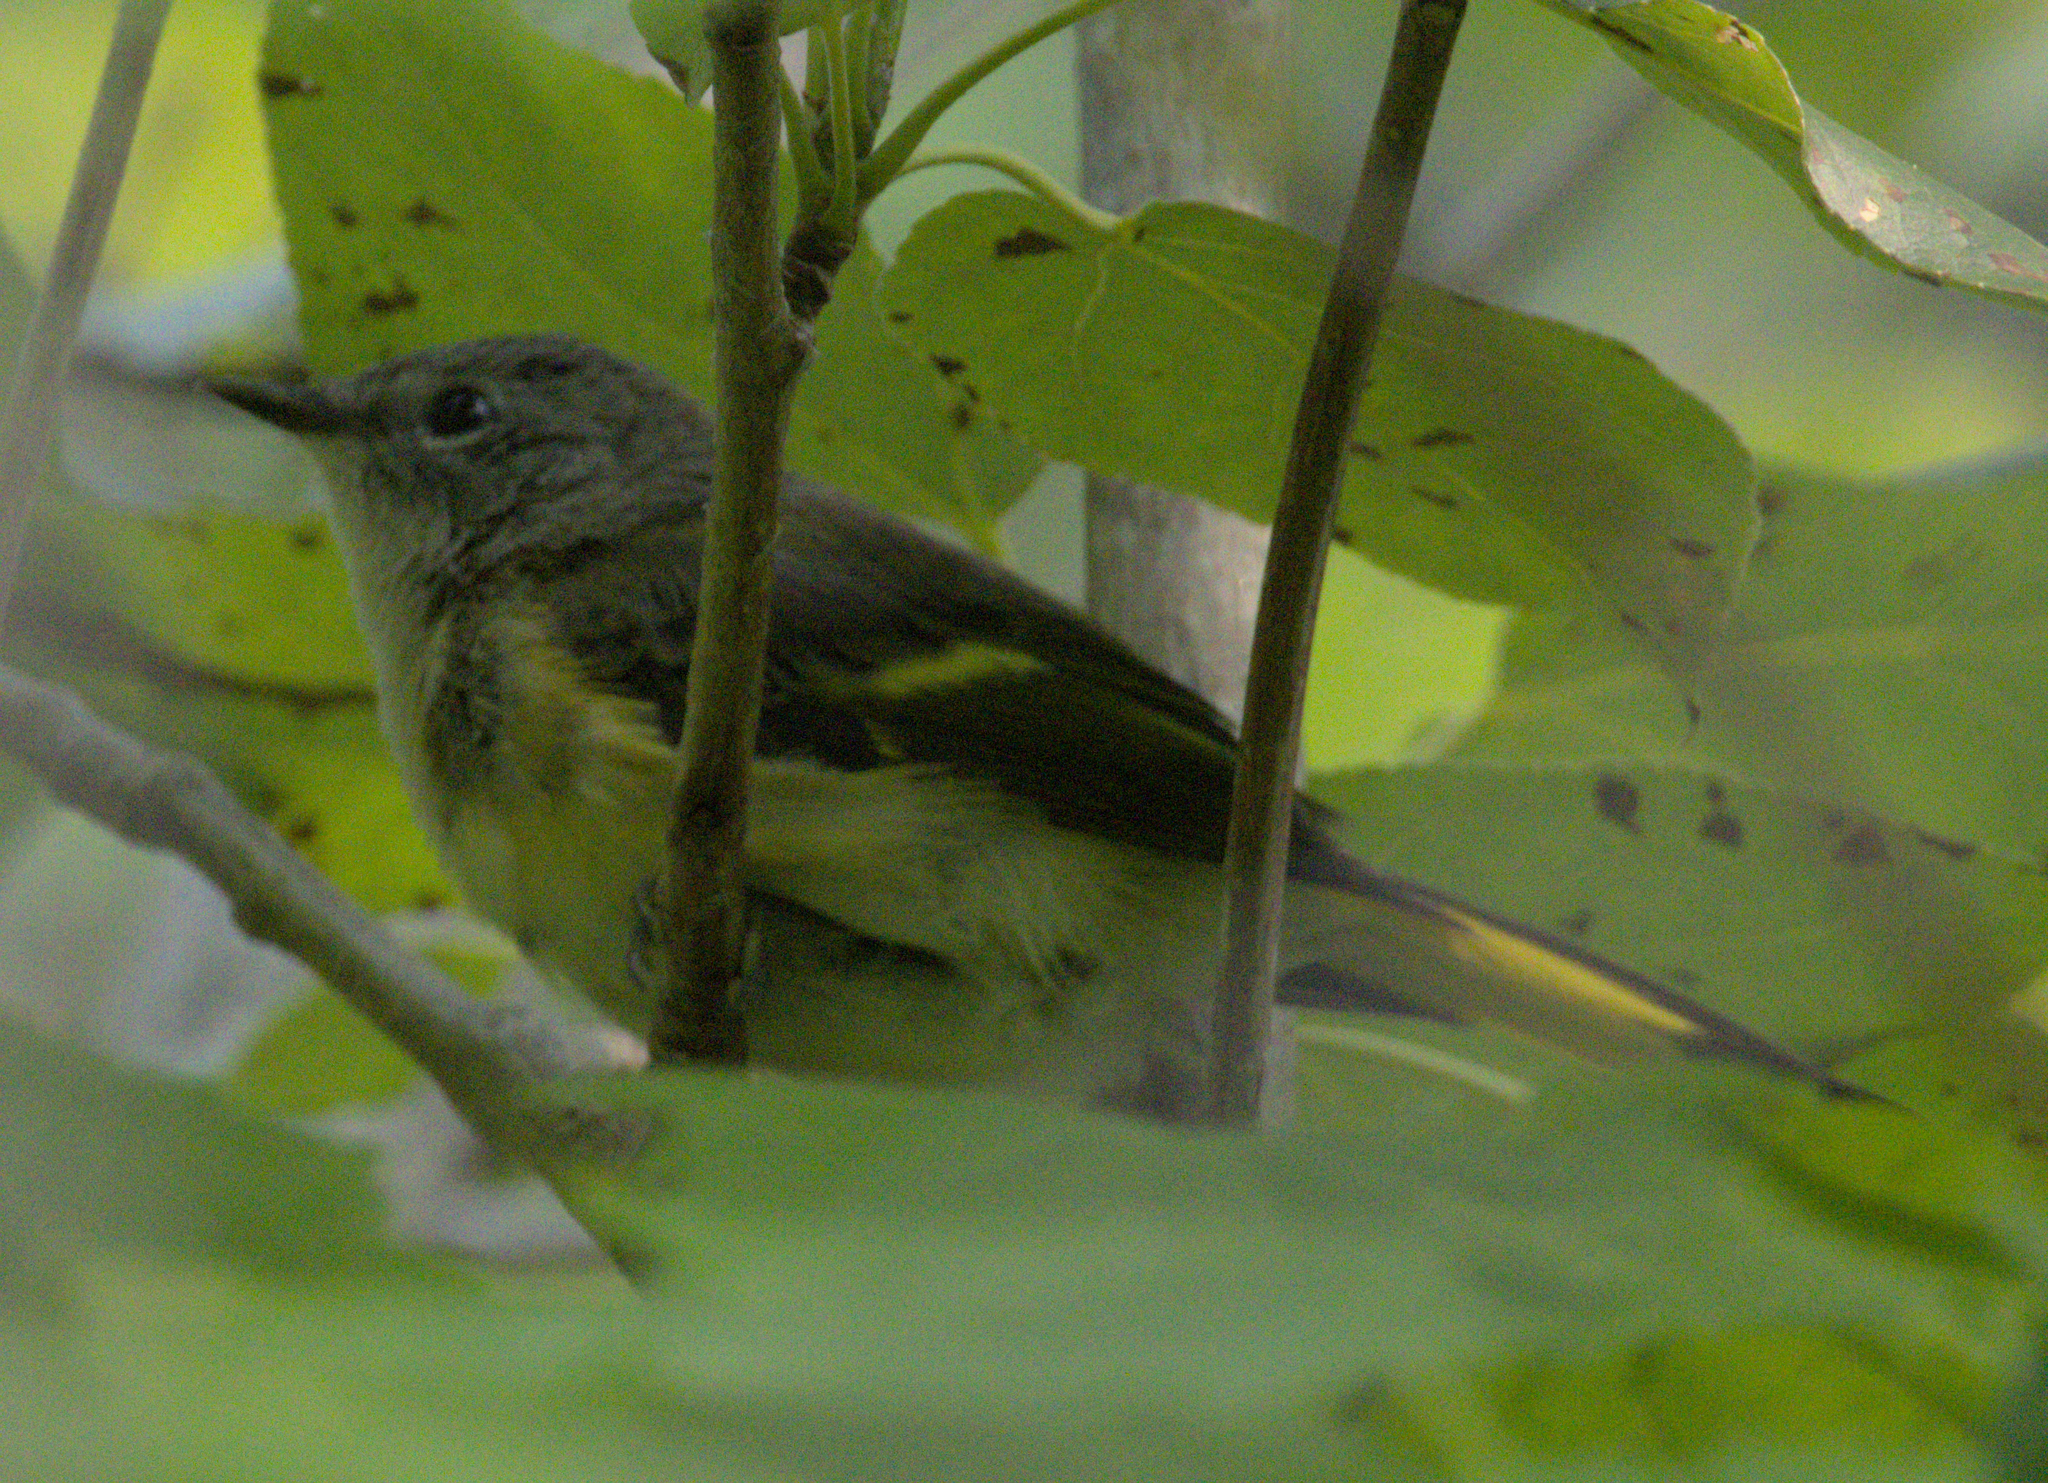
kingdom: Animalia
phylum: Chordata
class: Aves
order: Passeriformes
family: Parulidae
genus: Setophaga
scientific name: Setophaga ruticilla
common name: American redstart
